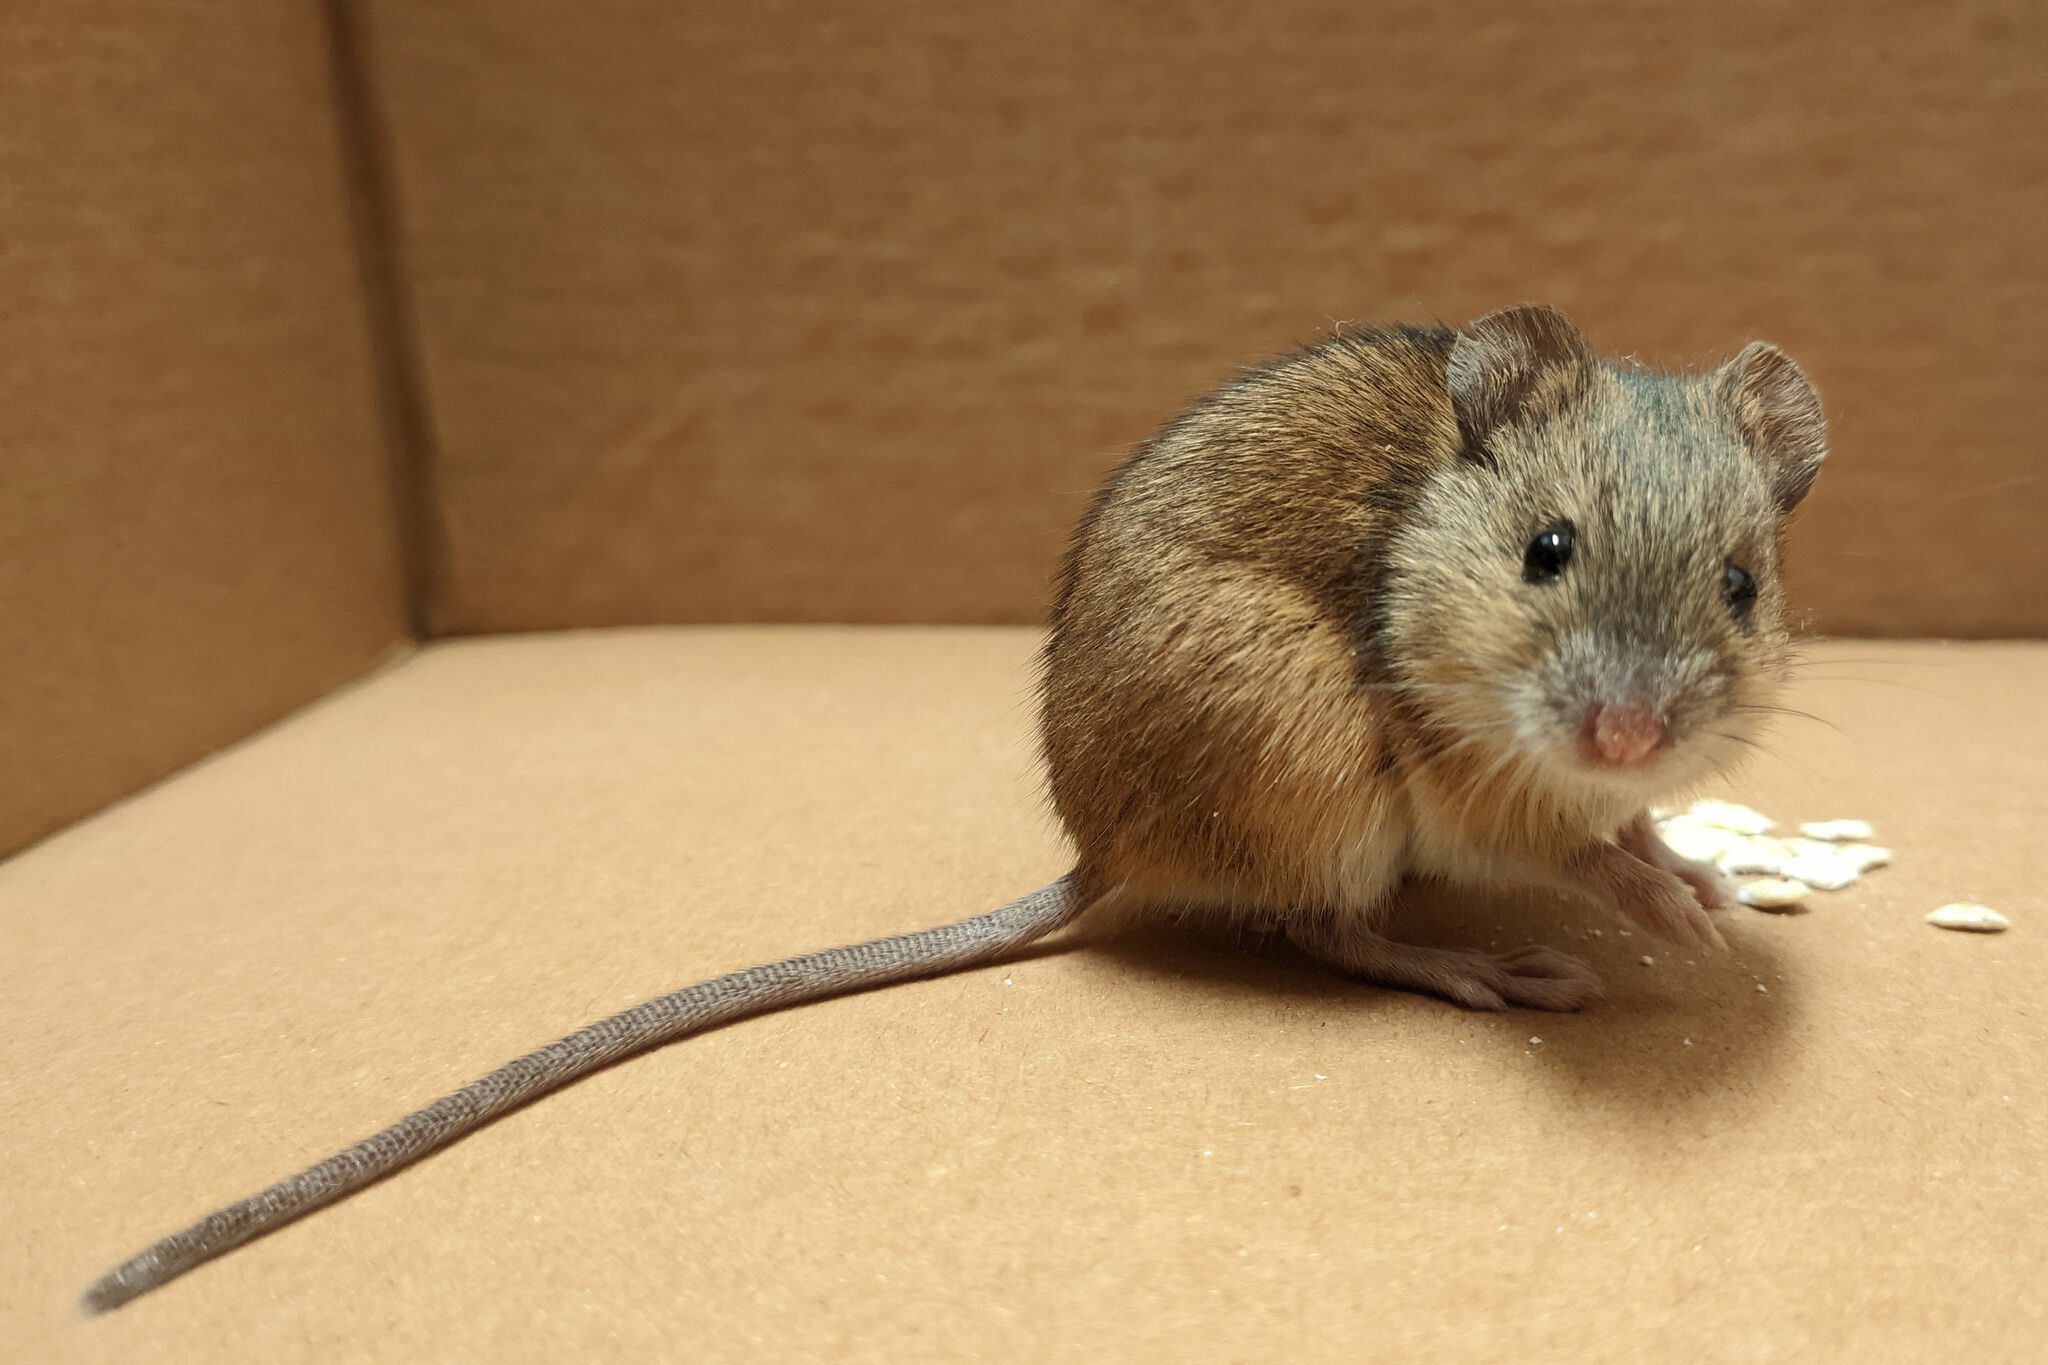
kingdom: Animalia
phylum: Chordata
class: Mammalia
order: Rodentia
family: Muridae
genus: Apodemus
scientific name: Apodemus agrarius
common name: Striped field mouse
